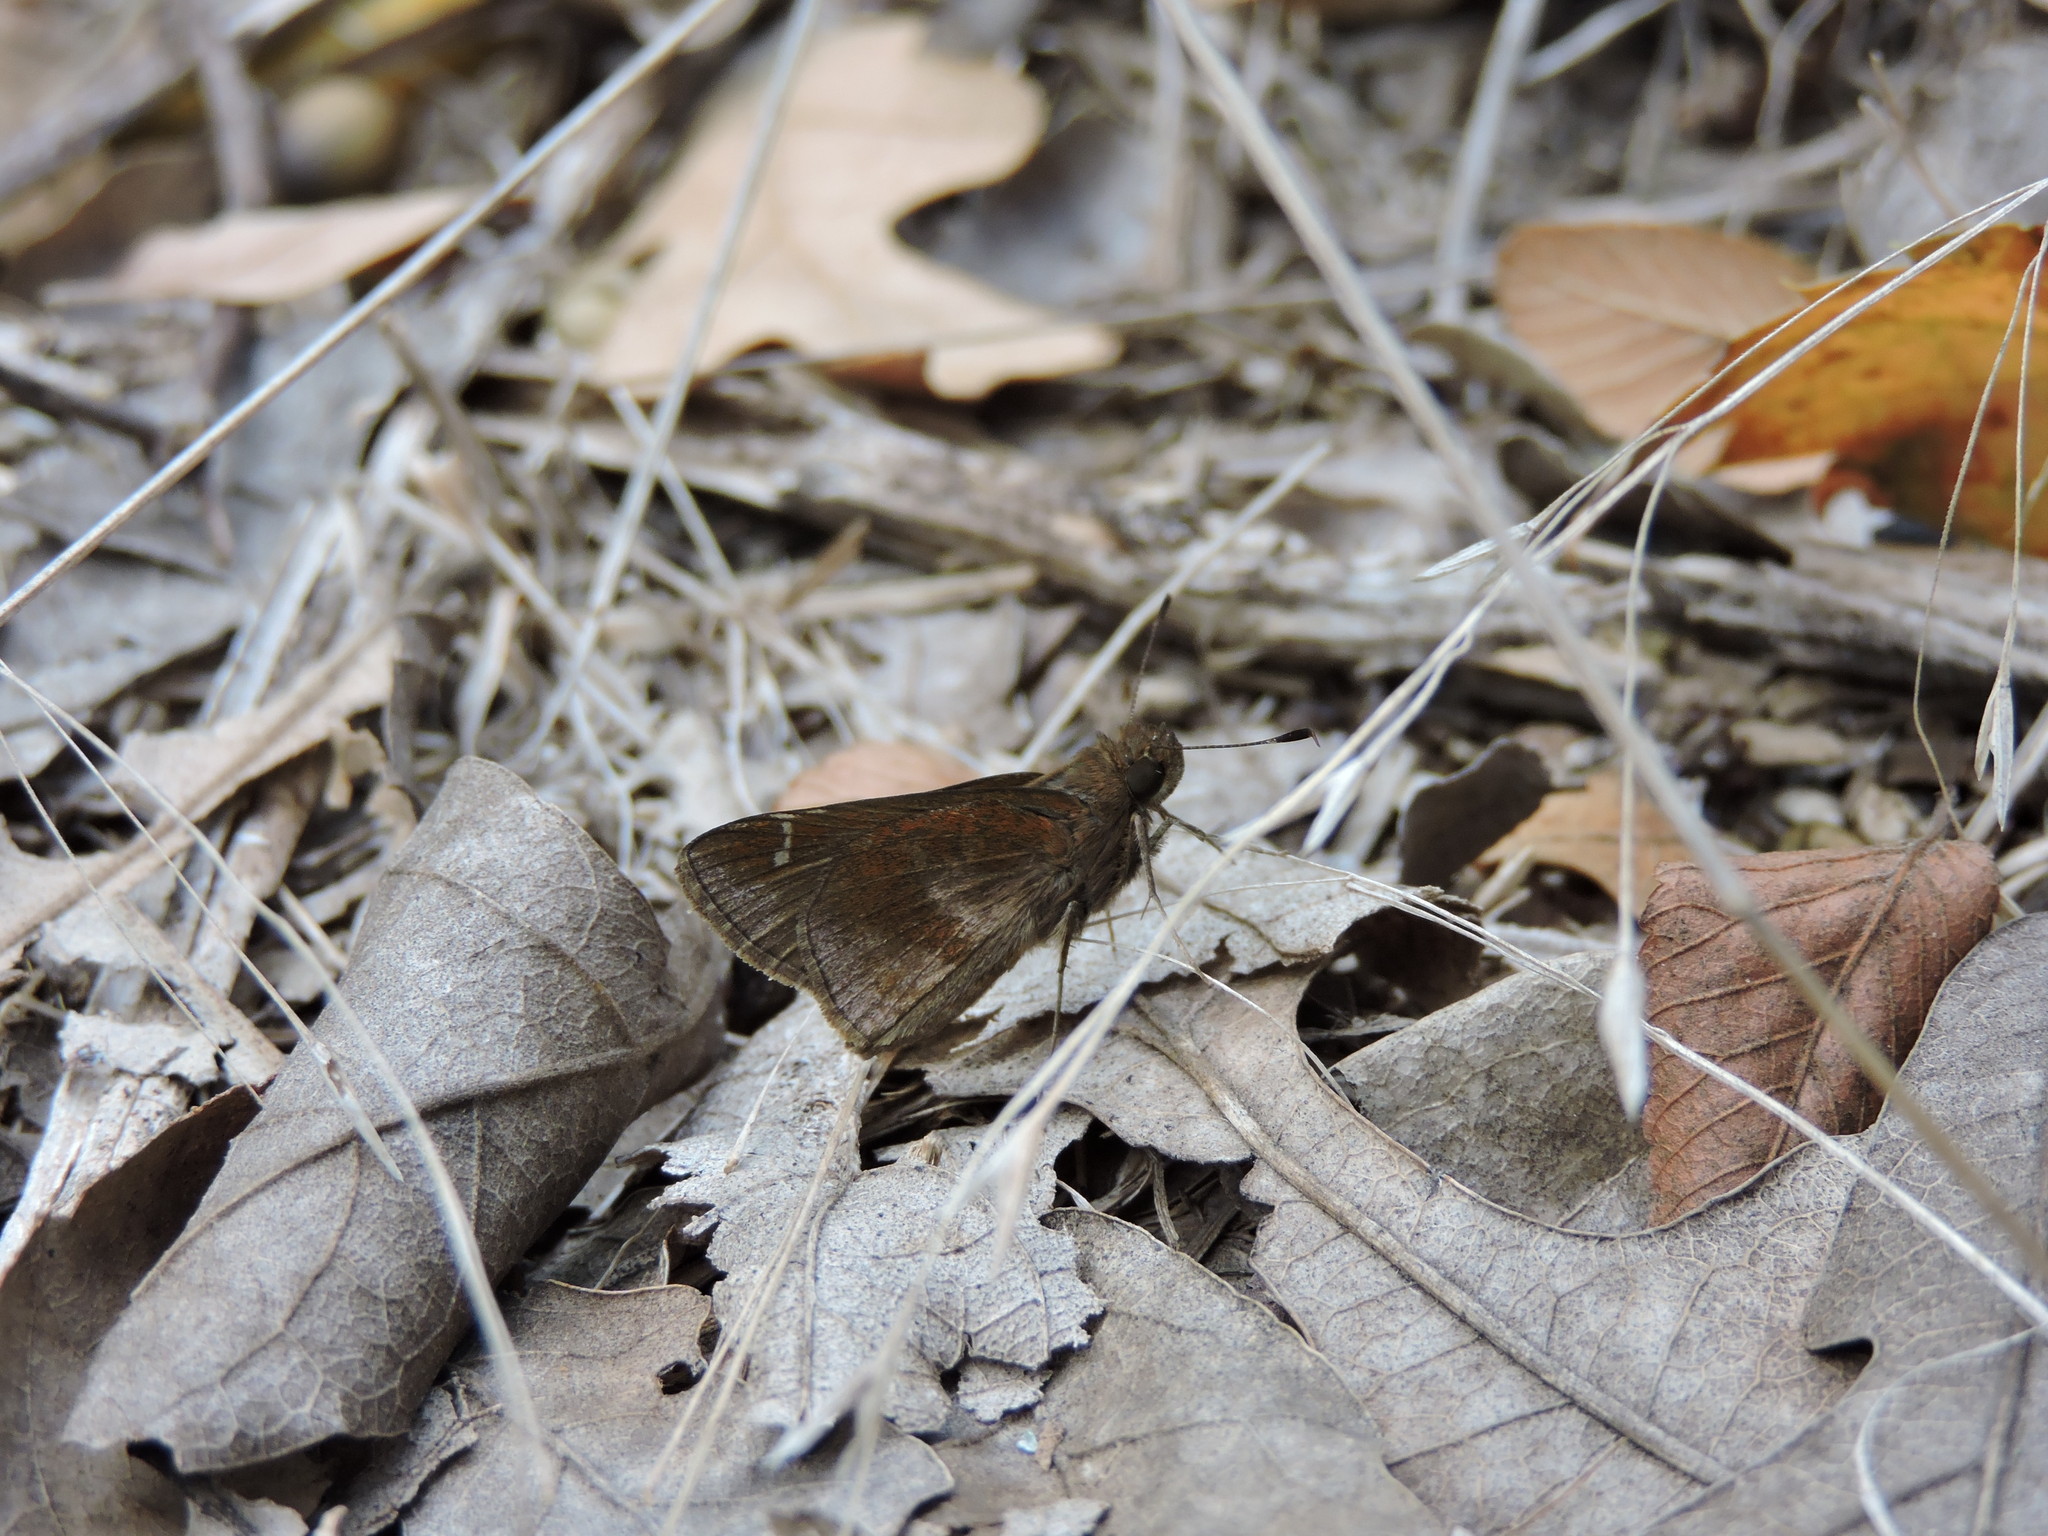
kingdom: Animalia
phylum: Arthropoda
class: Insecta
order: Lepidoptera
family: Hesperiidae
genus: Lerema
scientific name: Lerema accius
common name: Clouded skipper
